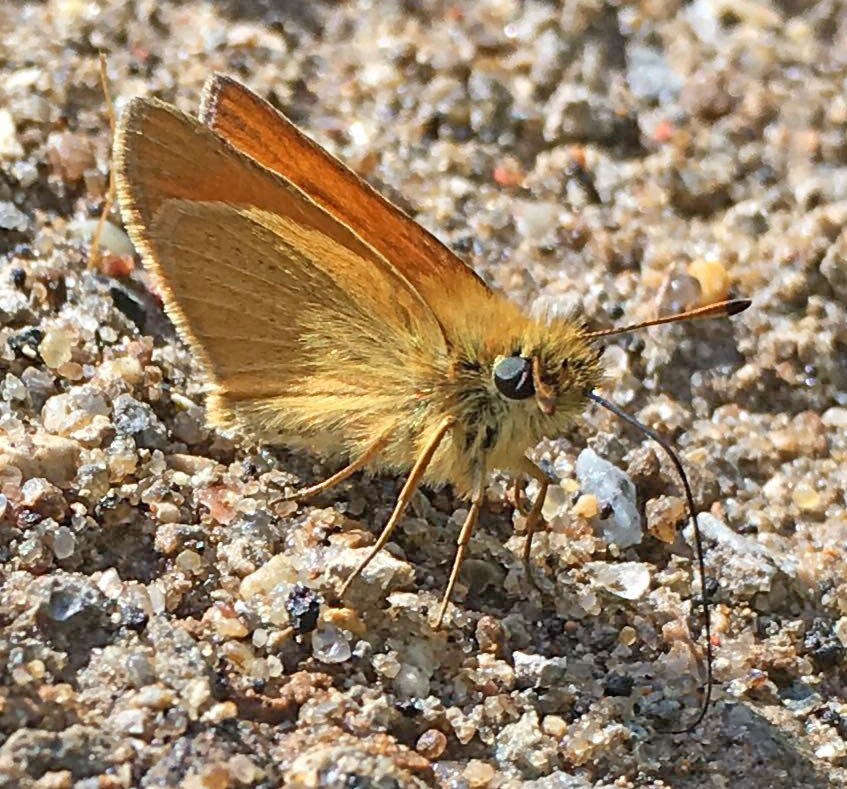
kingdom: Animalia
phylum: Arthropoda
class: Insecta
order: Lepidoptera
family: Hesperiidae
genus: Thymelicus
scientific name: Thymelicus lineola
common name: Essex skipper
